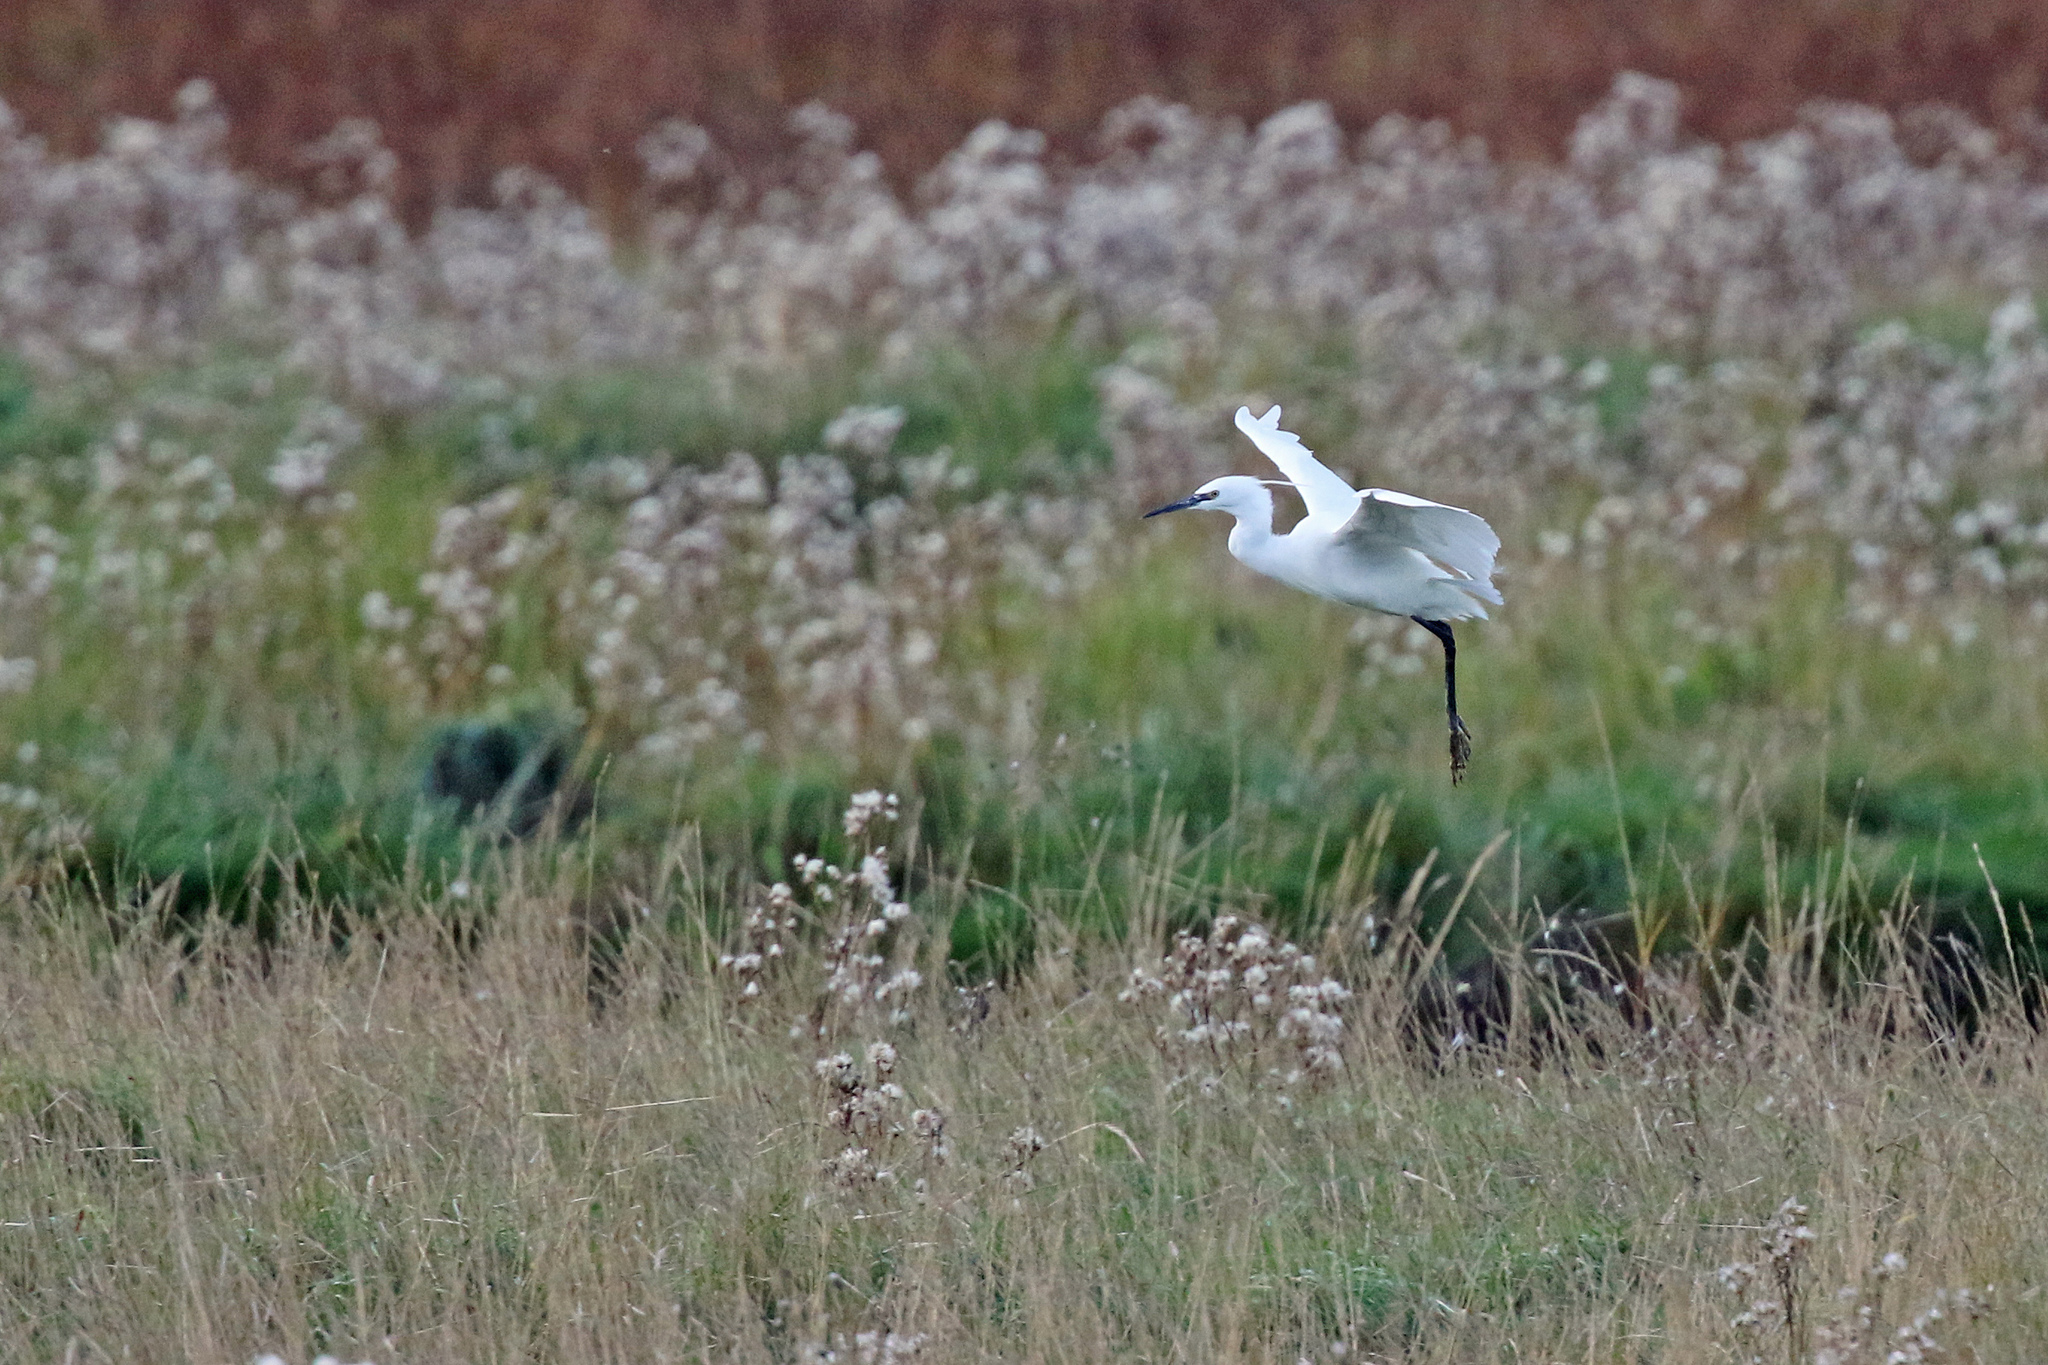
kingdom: Animalia
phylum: Chordata
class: Aves
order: Pelecaniformes
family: Ardeidae
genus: Egretta
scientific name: Egretta garzetta
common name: Little egret
